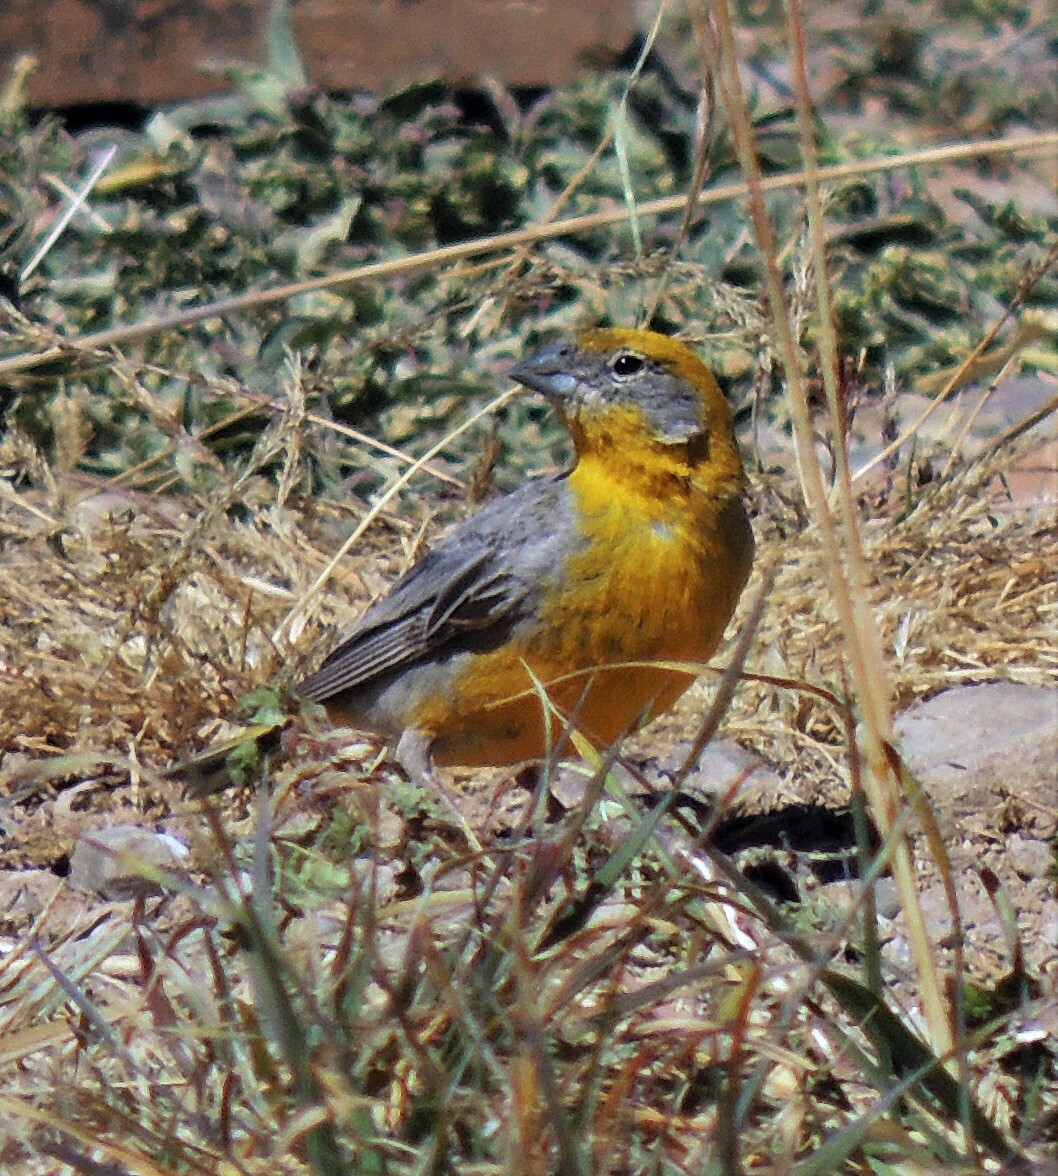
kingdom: Animalia
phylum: Chordata
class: Aves
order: Passeriformes
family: Thraupidae
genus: Sicalis
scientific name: Sicalis uropigyalis
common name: Bright-rumped yellow finch
